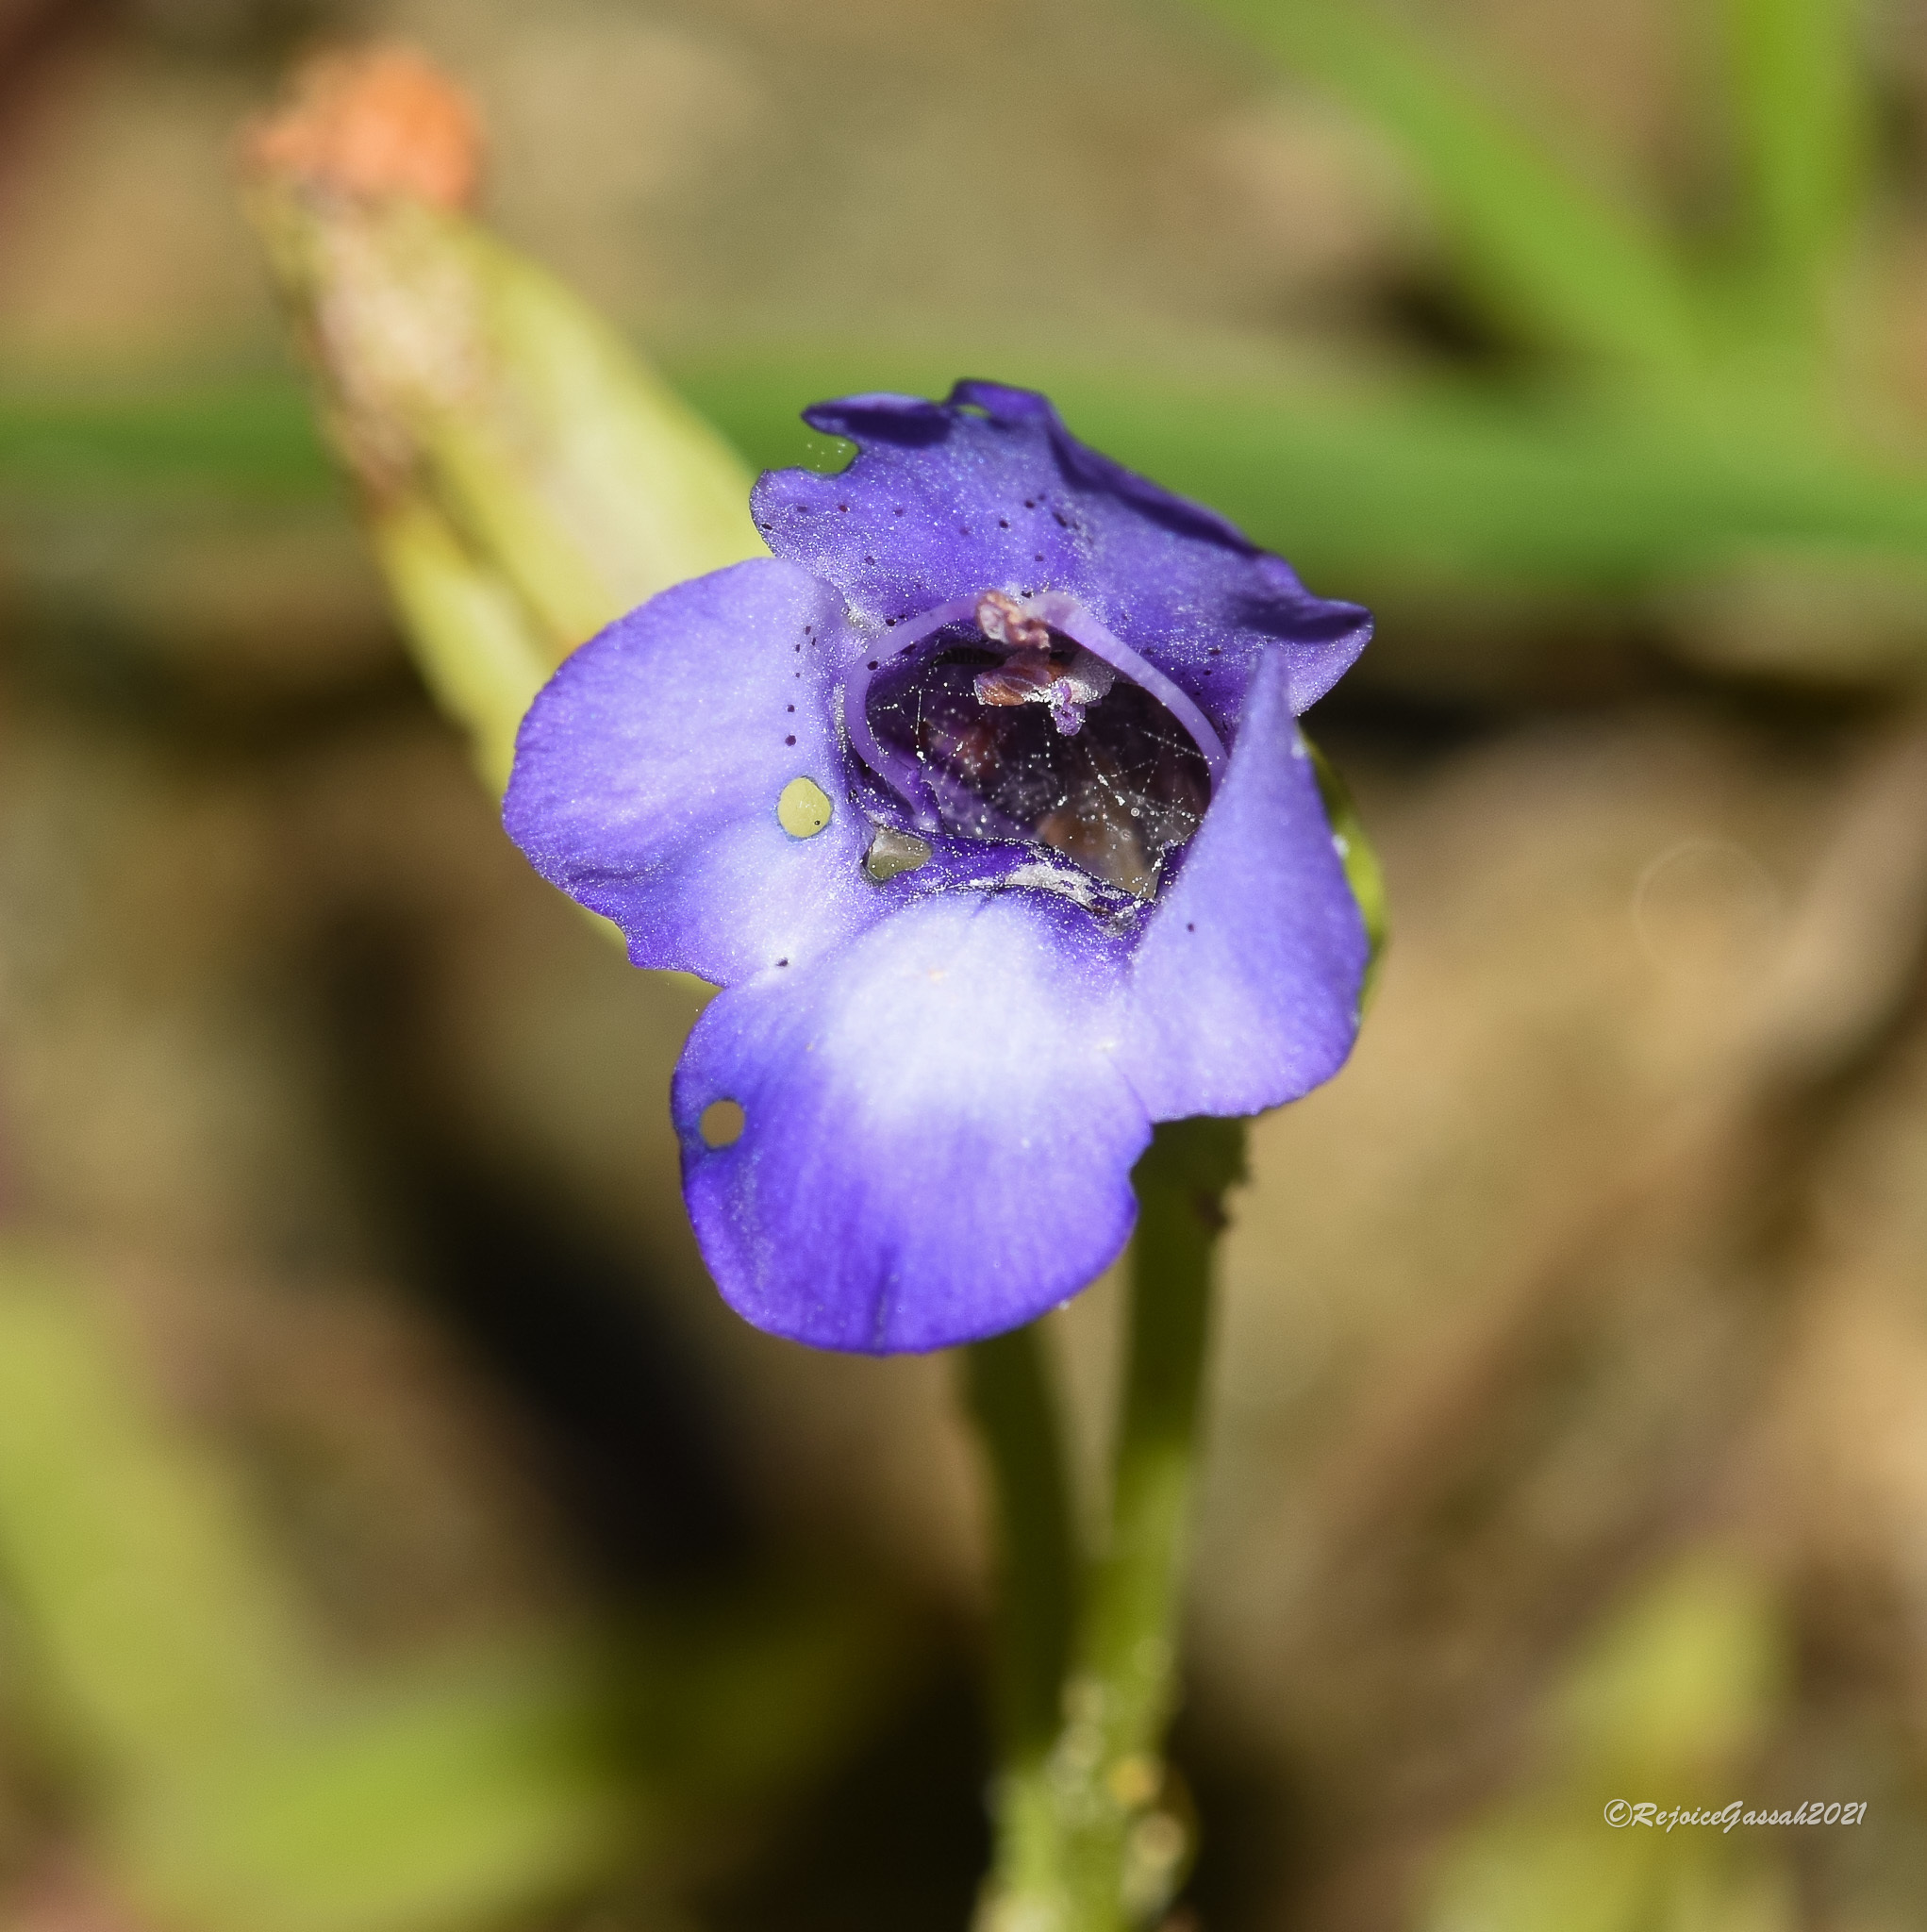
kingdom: Plantae
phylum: Tracheophyta
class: Magnoliopsida
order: Lamiales
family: Linderniaceae
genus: Torenia
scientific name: Torenia asiatica
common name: Wishbone flower
